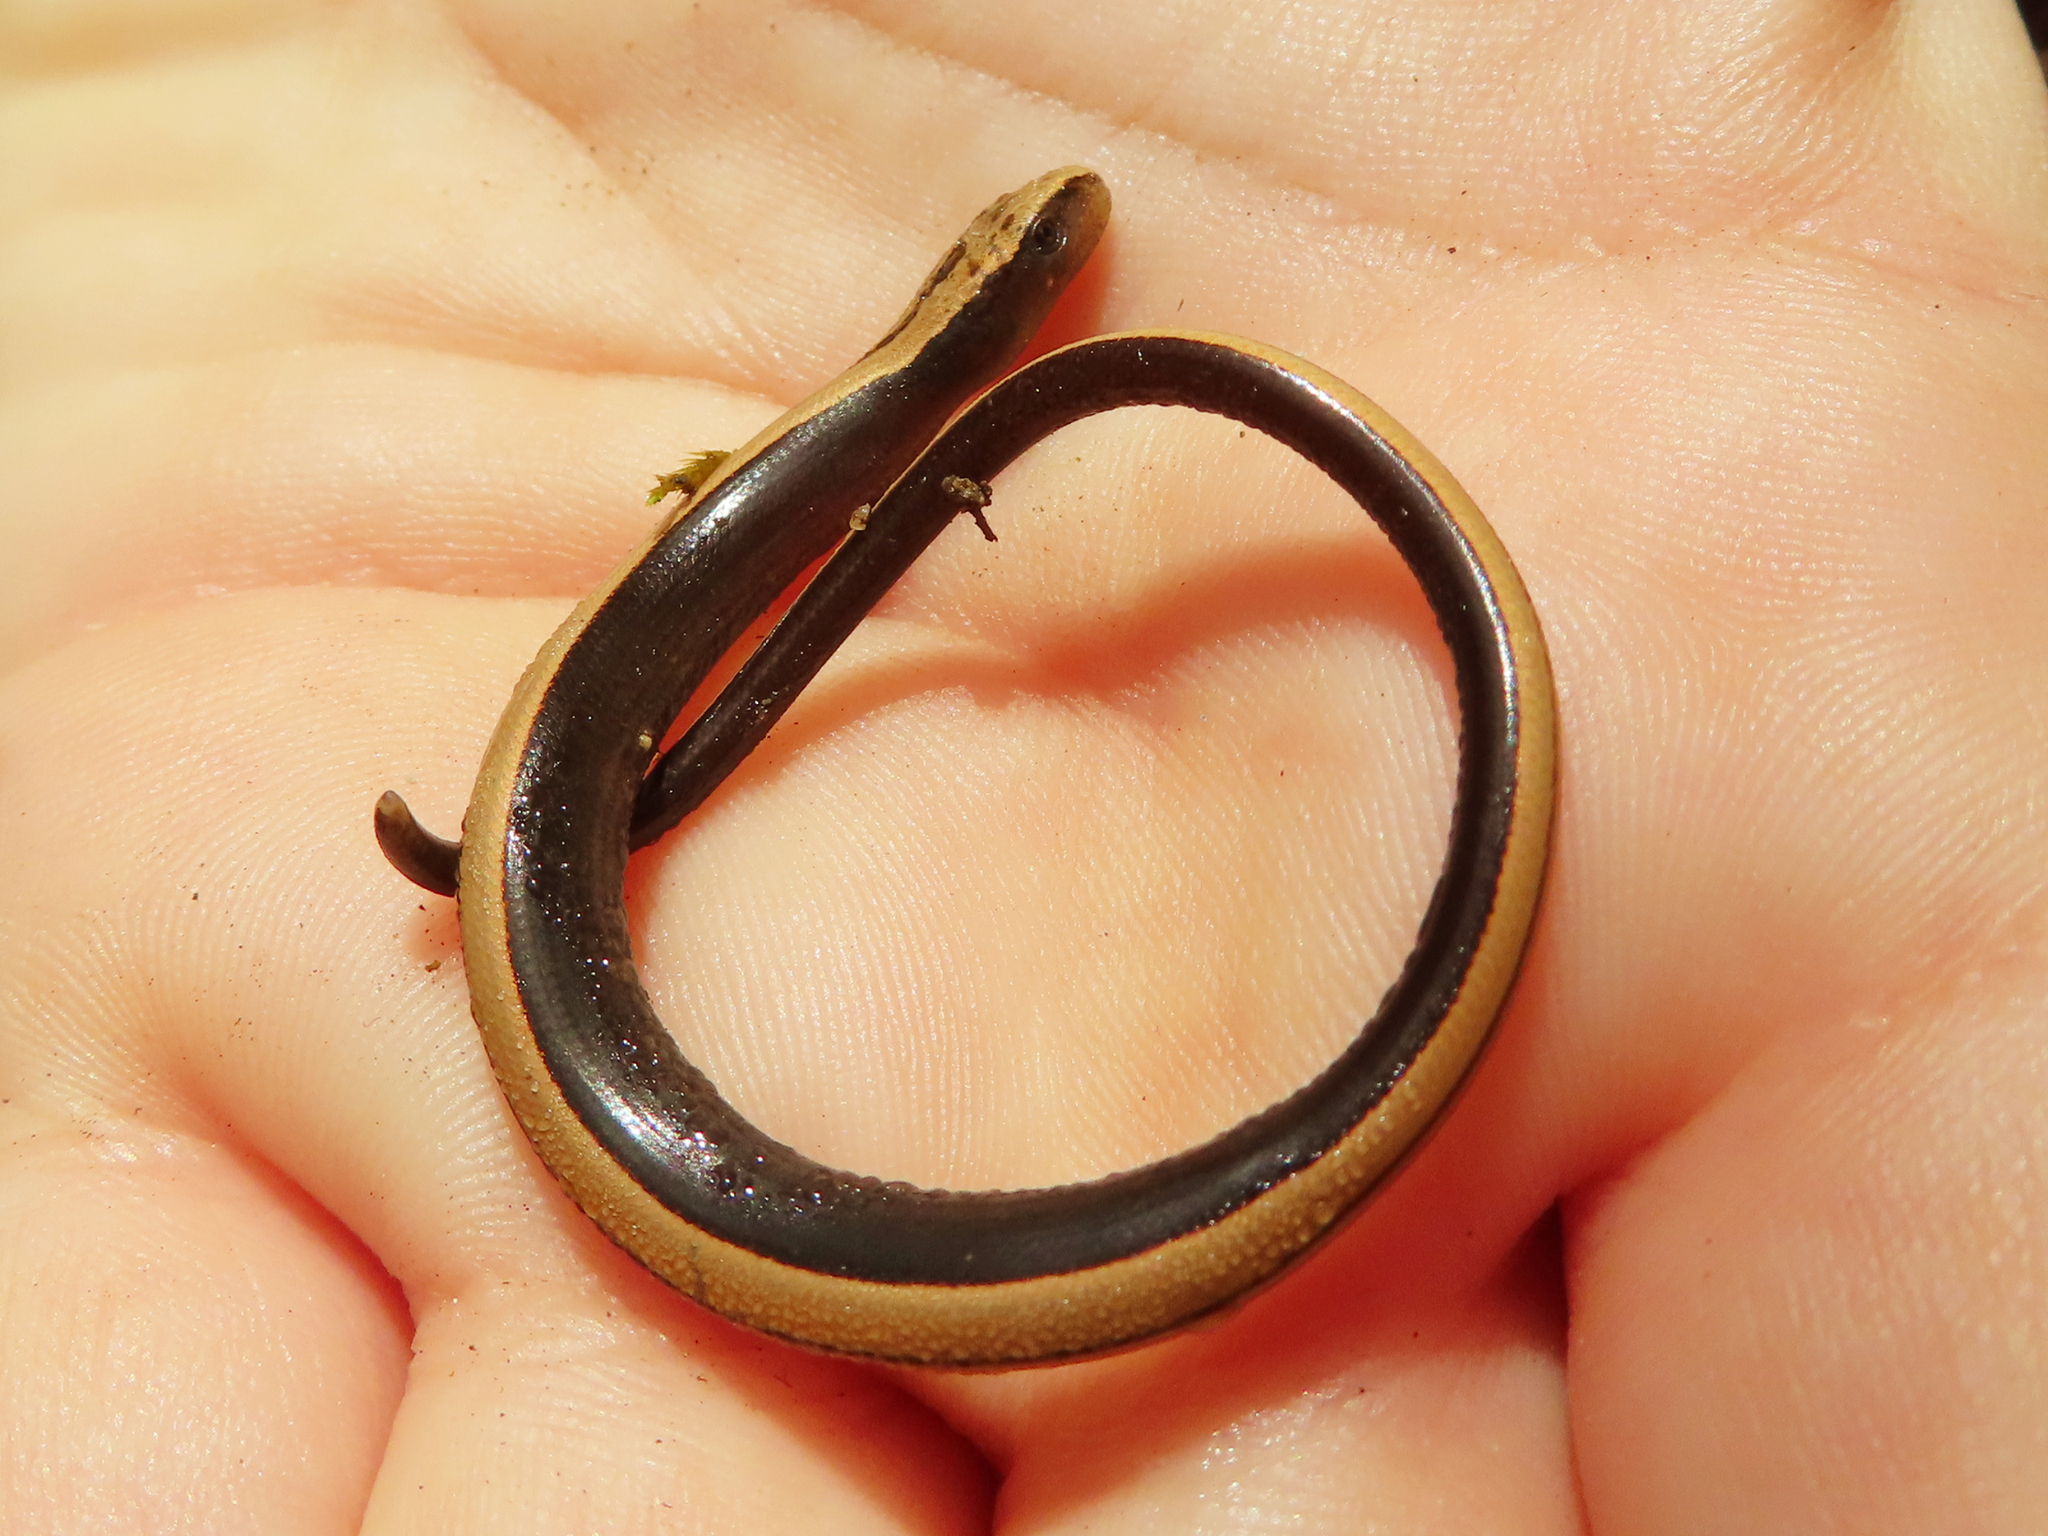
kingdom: Animalia
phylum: Chordata
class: Squamata
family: Anguidae
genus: Anguis
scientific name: Anguis colchica
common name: Slow worm
